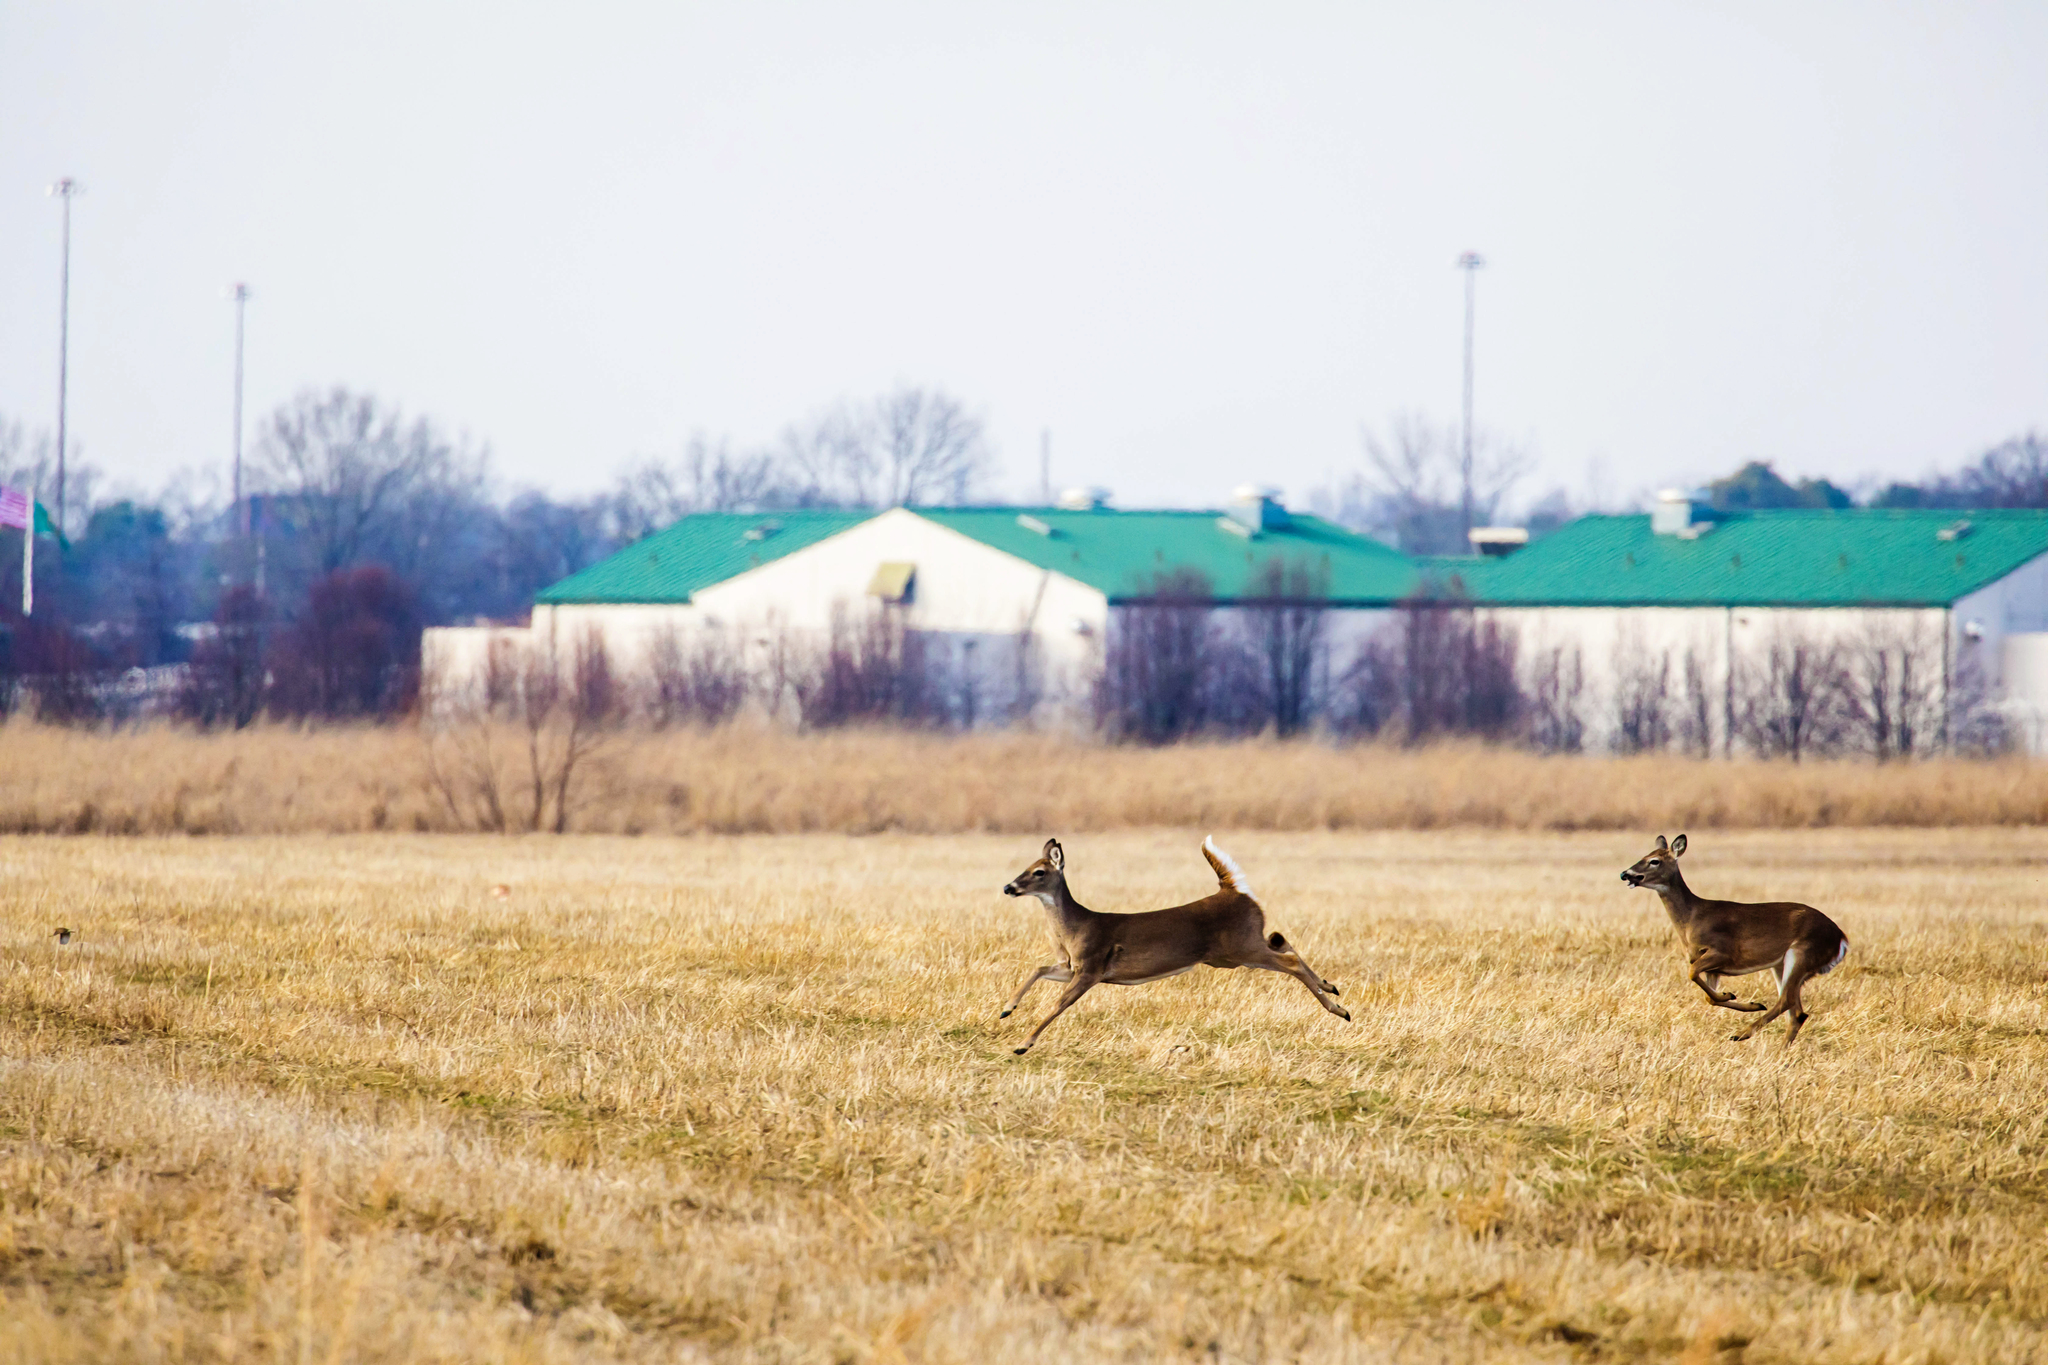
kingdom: Animalia
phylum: Chordata
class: Mammalia
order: Artiodactyla
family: Cervidae
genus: Odocoileus
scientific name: Odocoileus virginianus
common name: White-tailed deer
